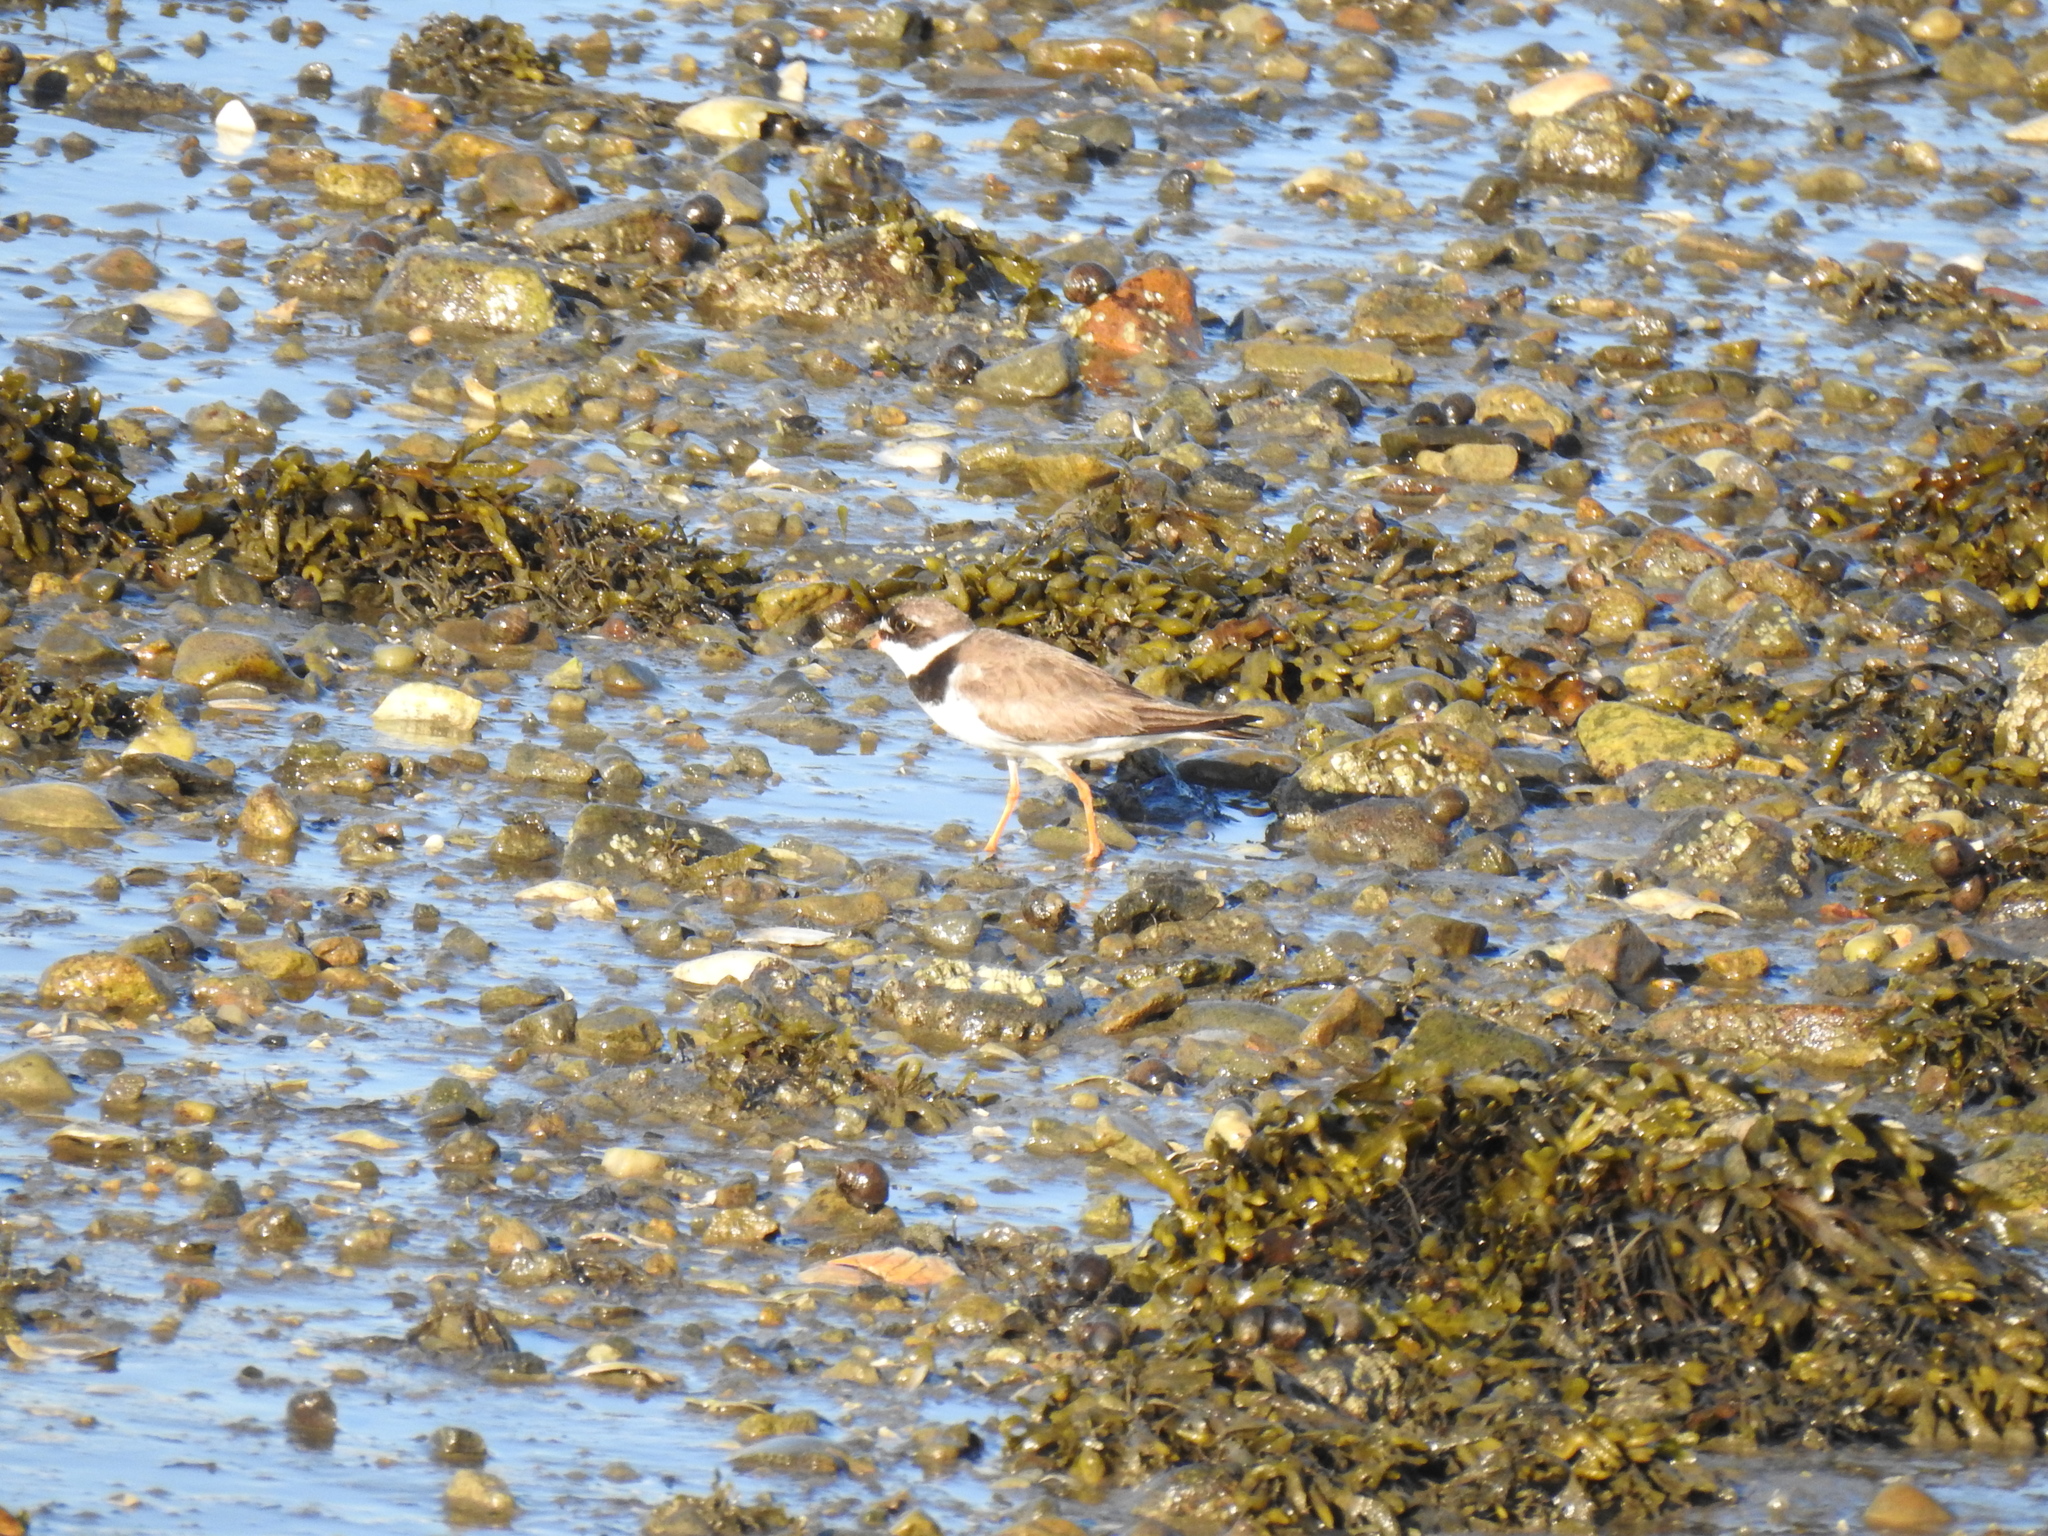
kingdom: Animalia
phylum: Chordata
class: Aves
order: Charadriiformes
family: Charadriidae
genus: Charadrius
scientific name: Charadrius semipalmatus
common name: Semipalmated plover
